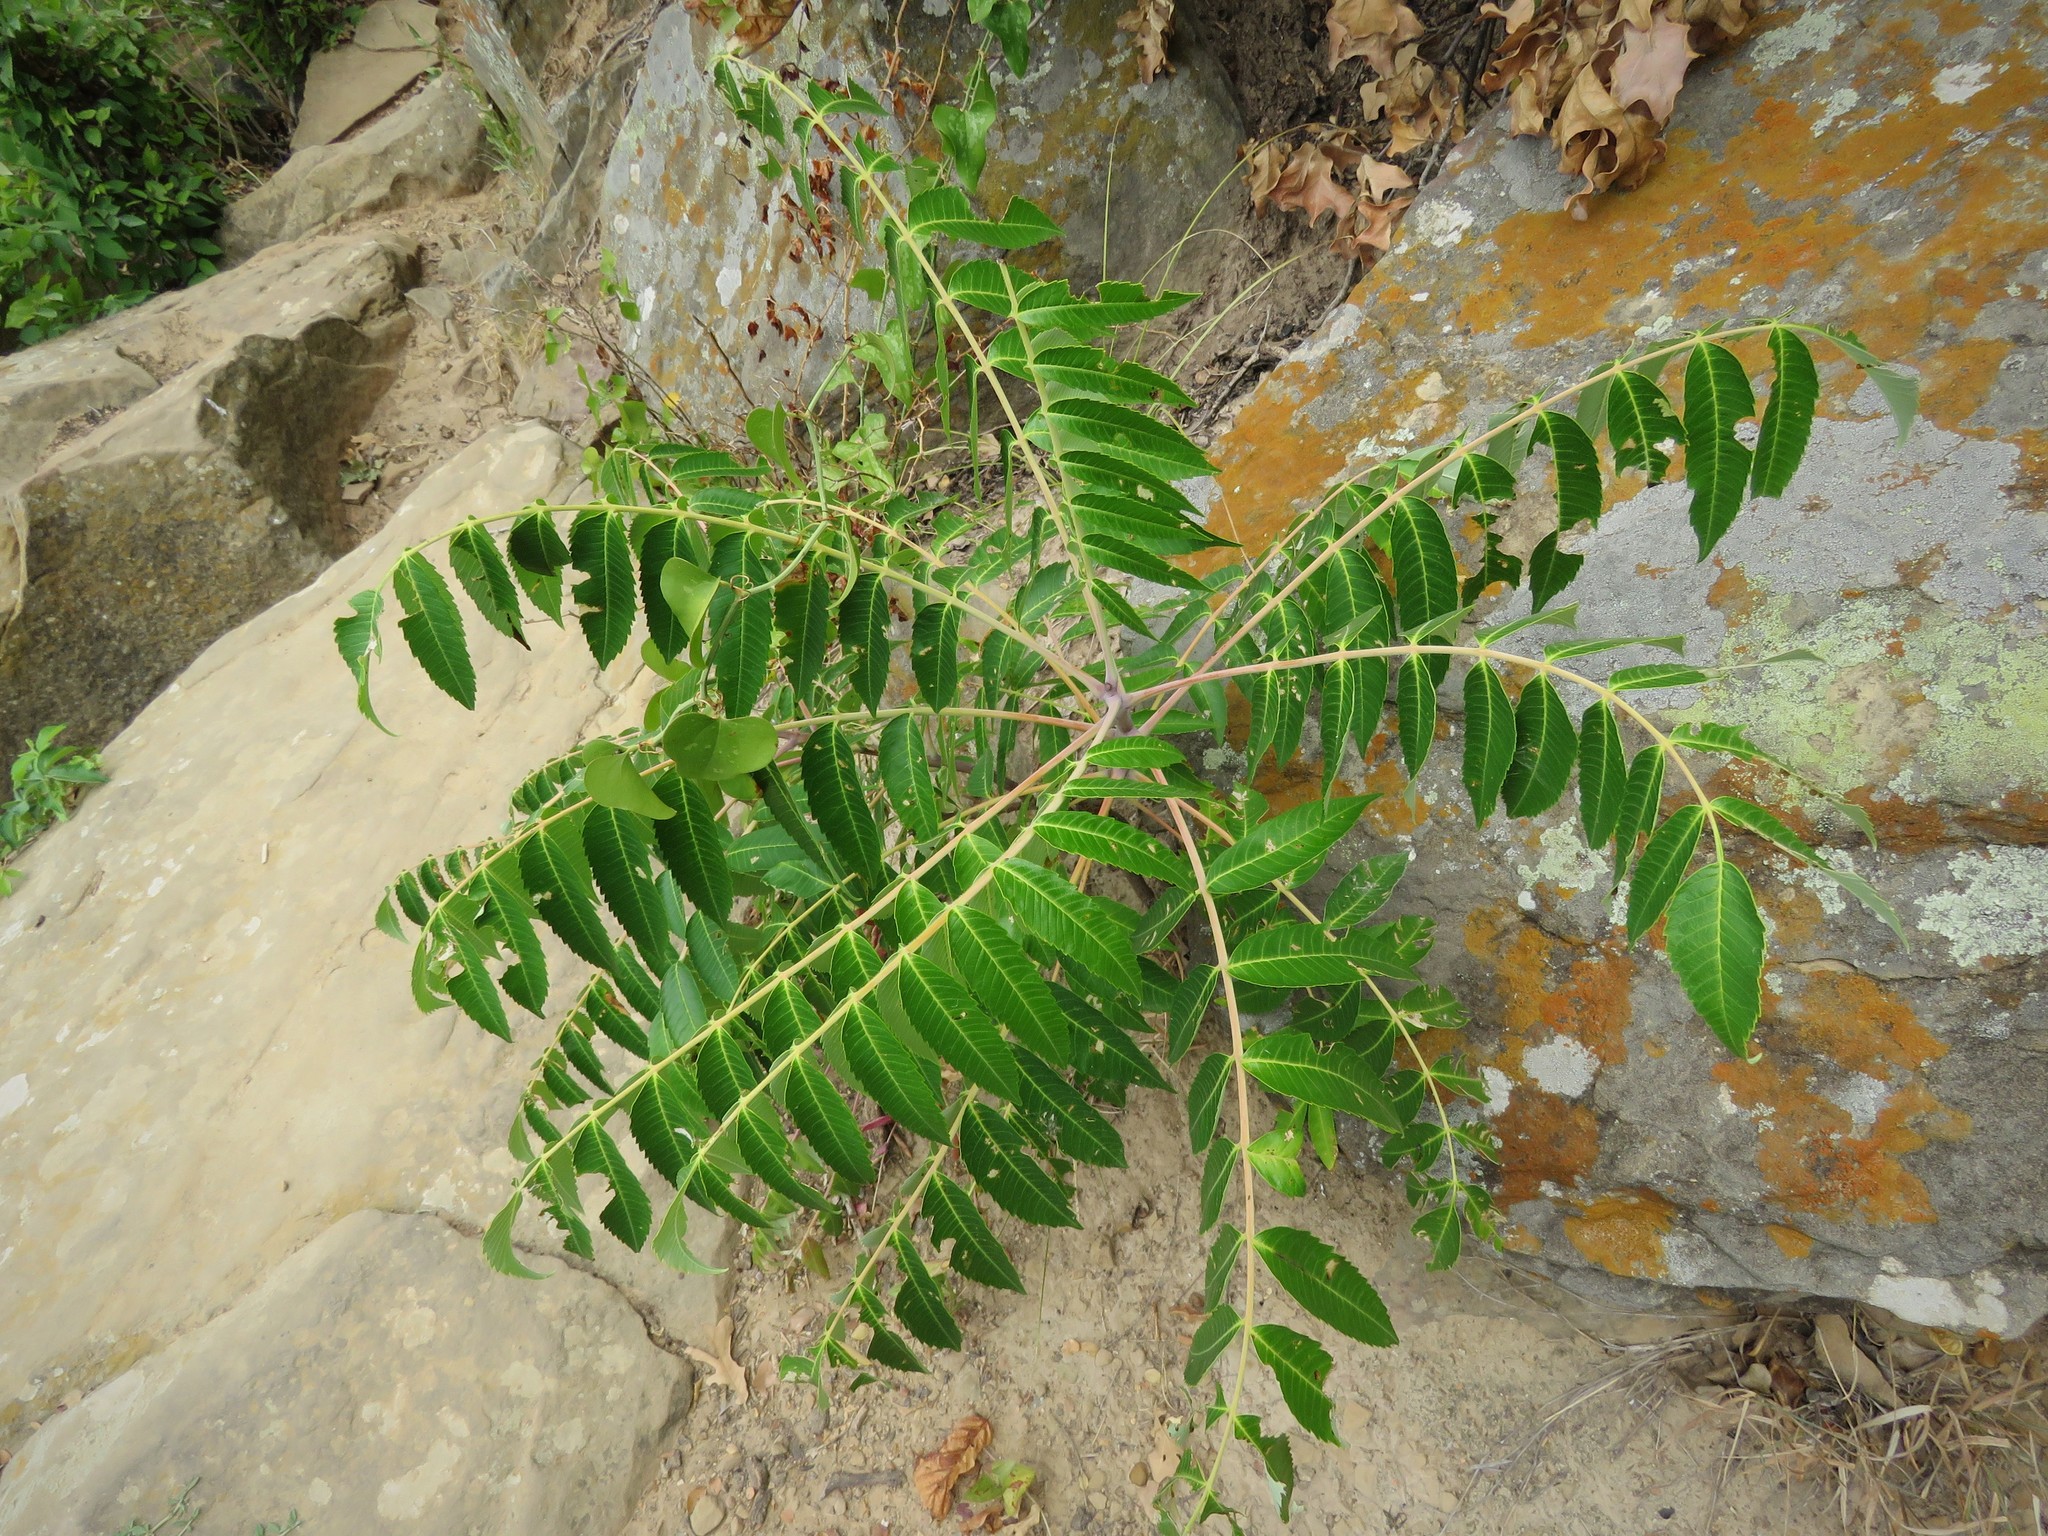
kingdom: Plantae
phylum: Tracheophyta
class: Magnoliopsida
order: Sapindales
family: Anacardiaceae
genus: Rhus
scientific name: Rhus glabra
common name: Scarlet sumac
